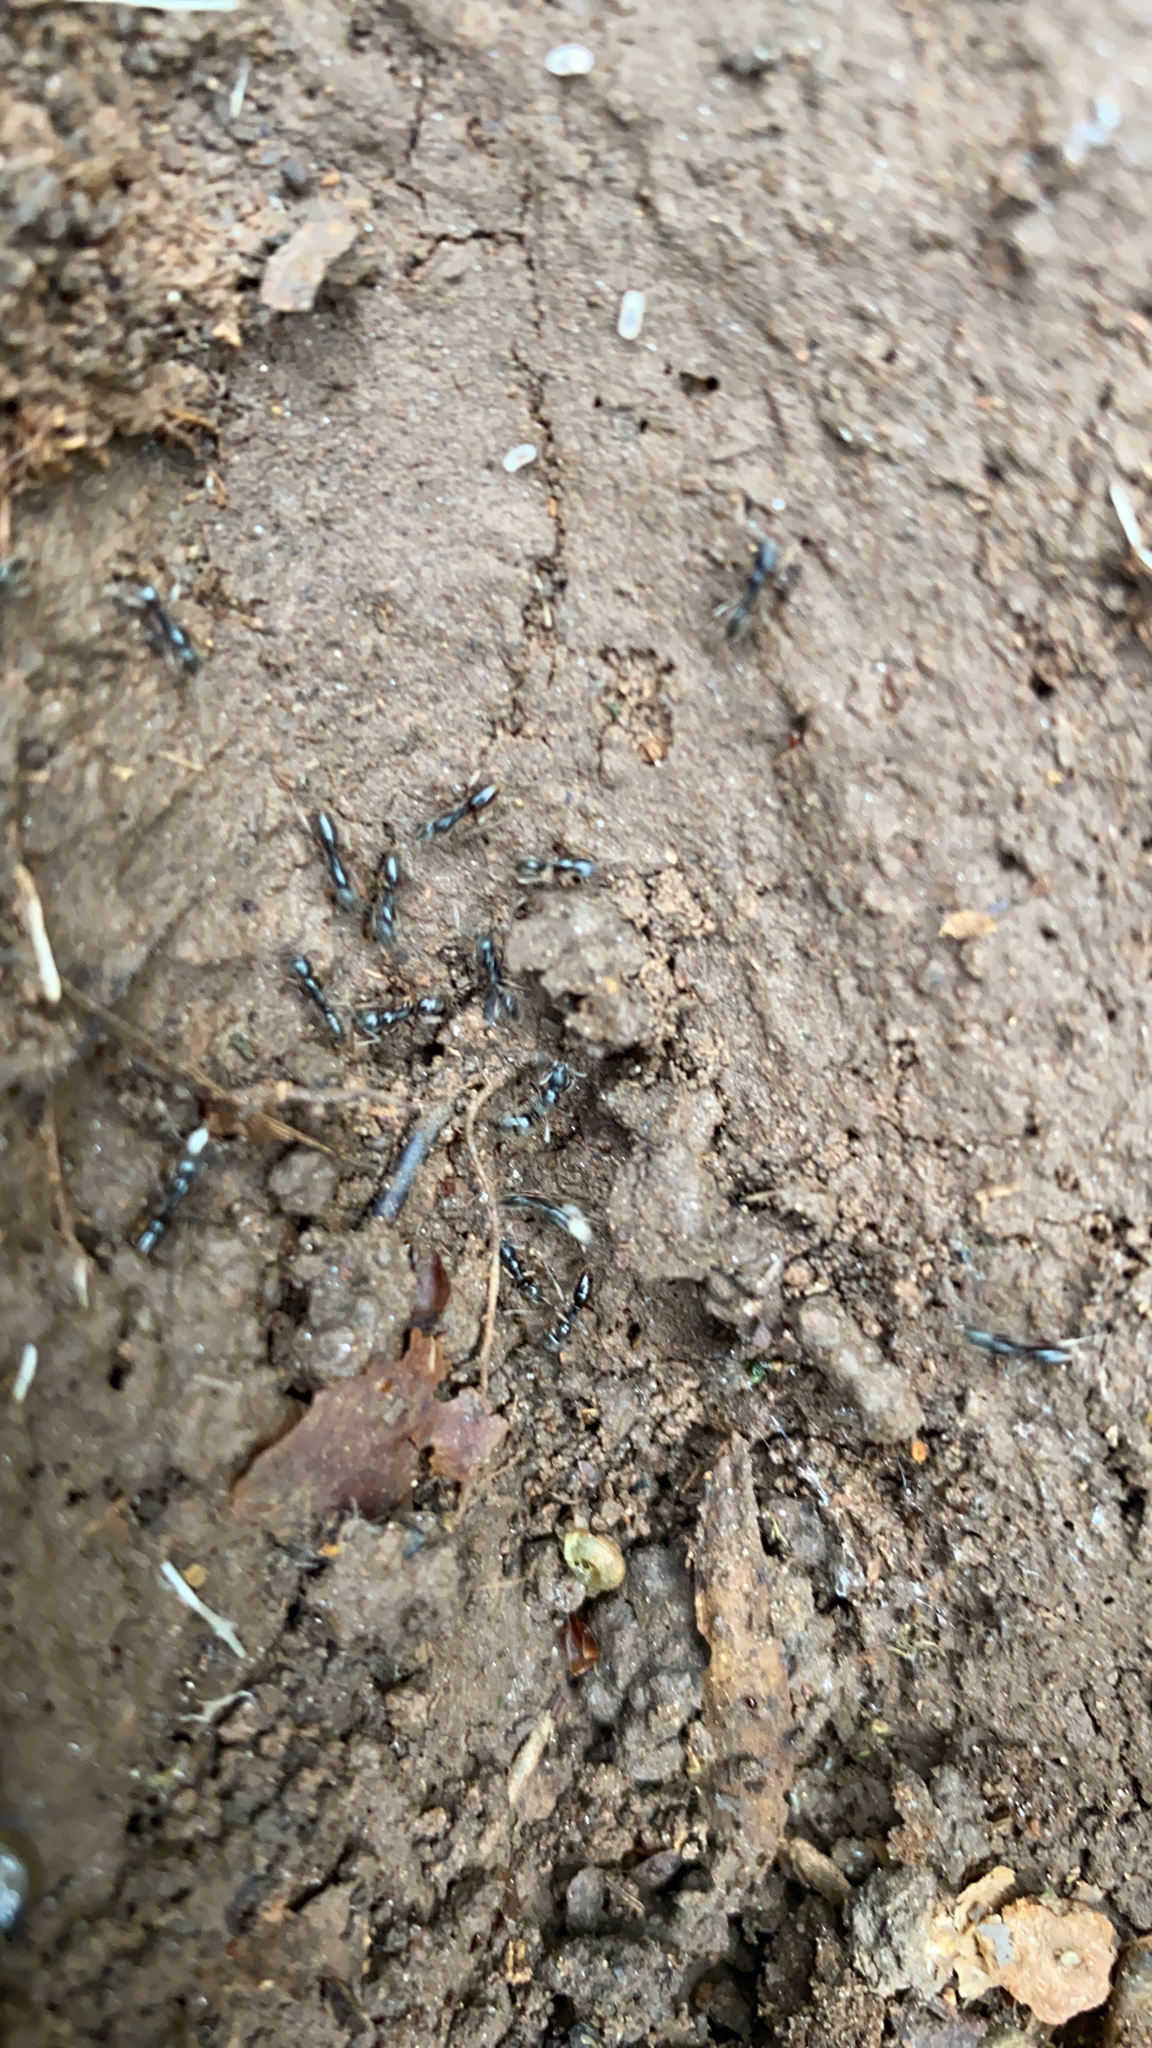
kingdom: Animalia
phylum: Arthropoda
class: Insecta
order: Hymenoptera
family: Formicidae
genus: Pachycondyla
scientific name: Pachycondyla chinensis
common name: Asian needle ant
